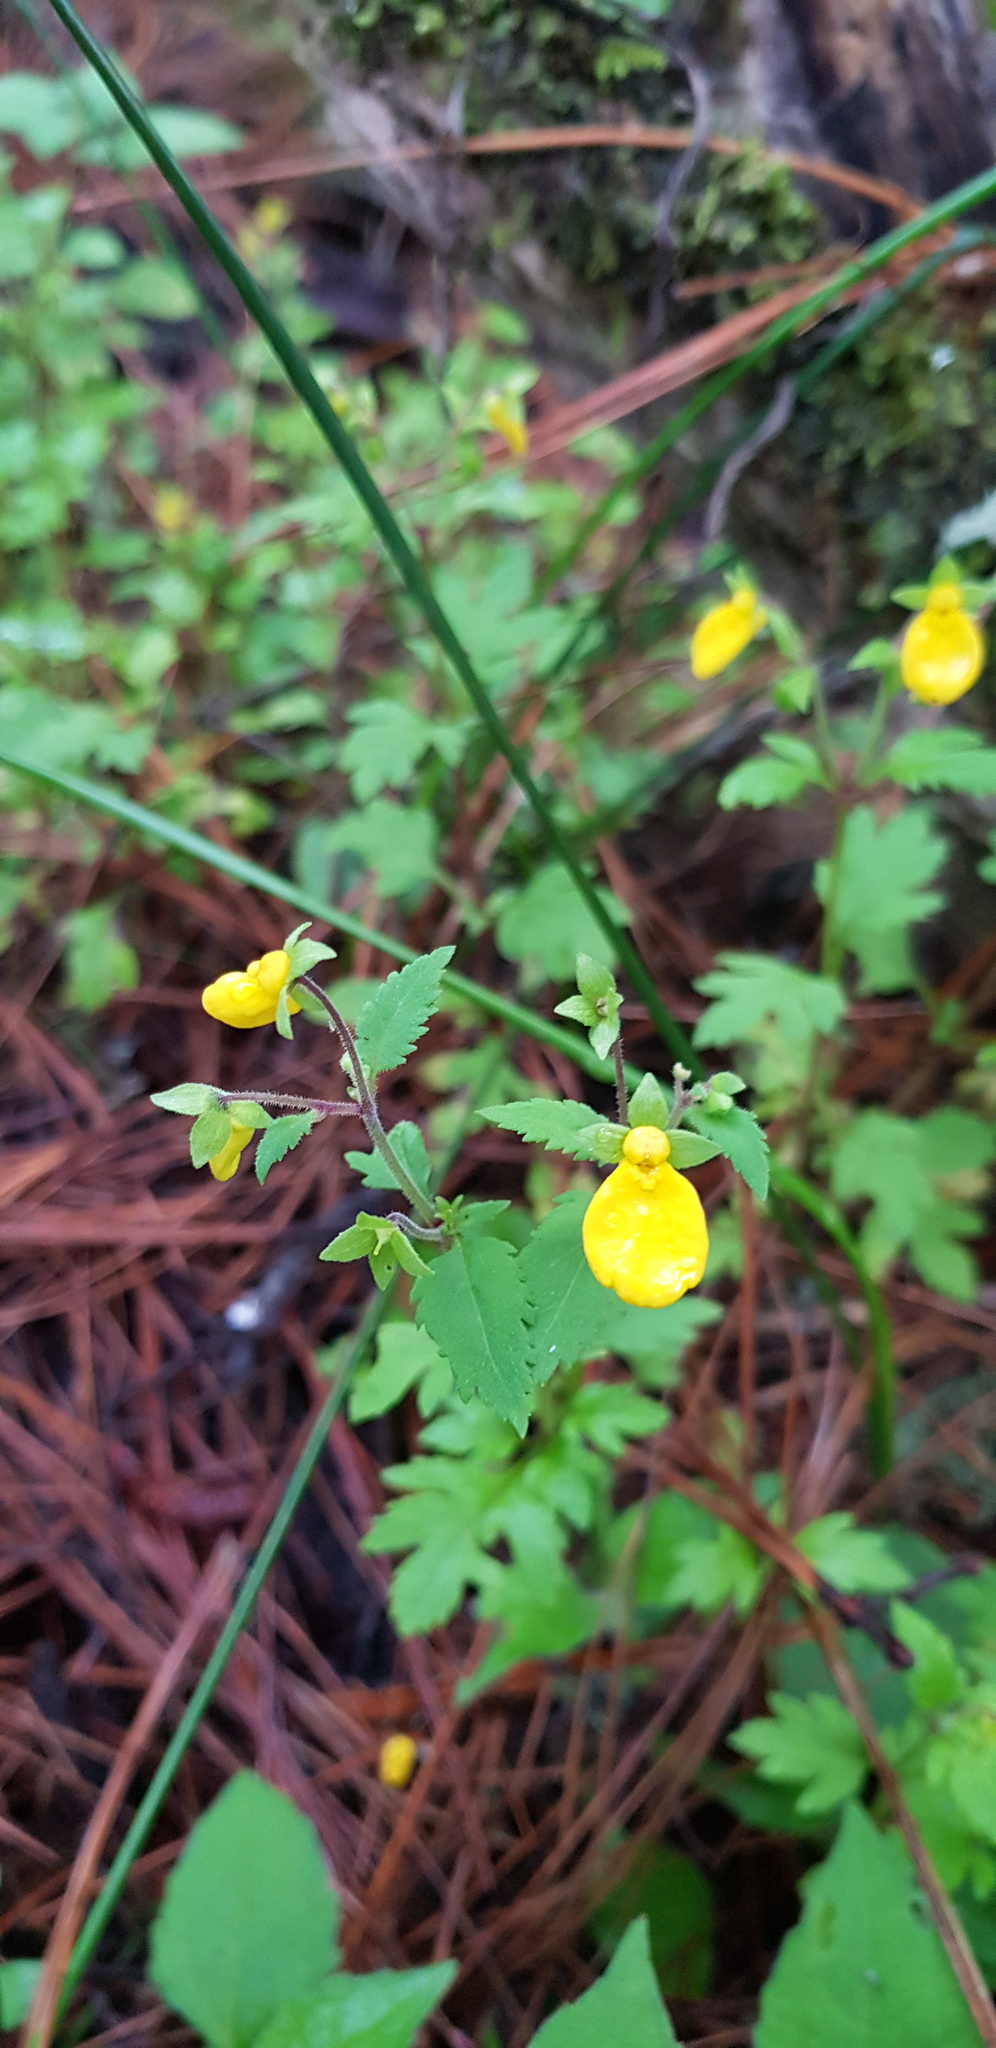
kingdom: Plantae
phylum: Tracheophyta
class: Magnoliopsida
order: Lamiales
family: Calceolariaceae
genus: Calceolaria
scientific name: Calceolaria mexicana
